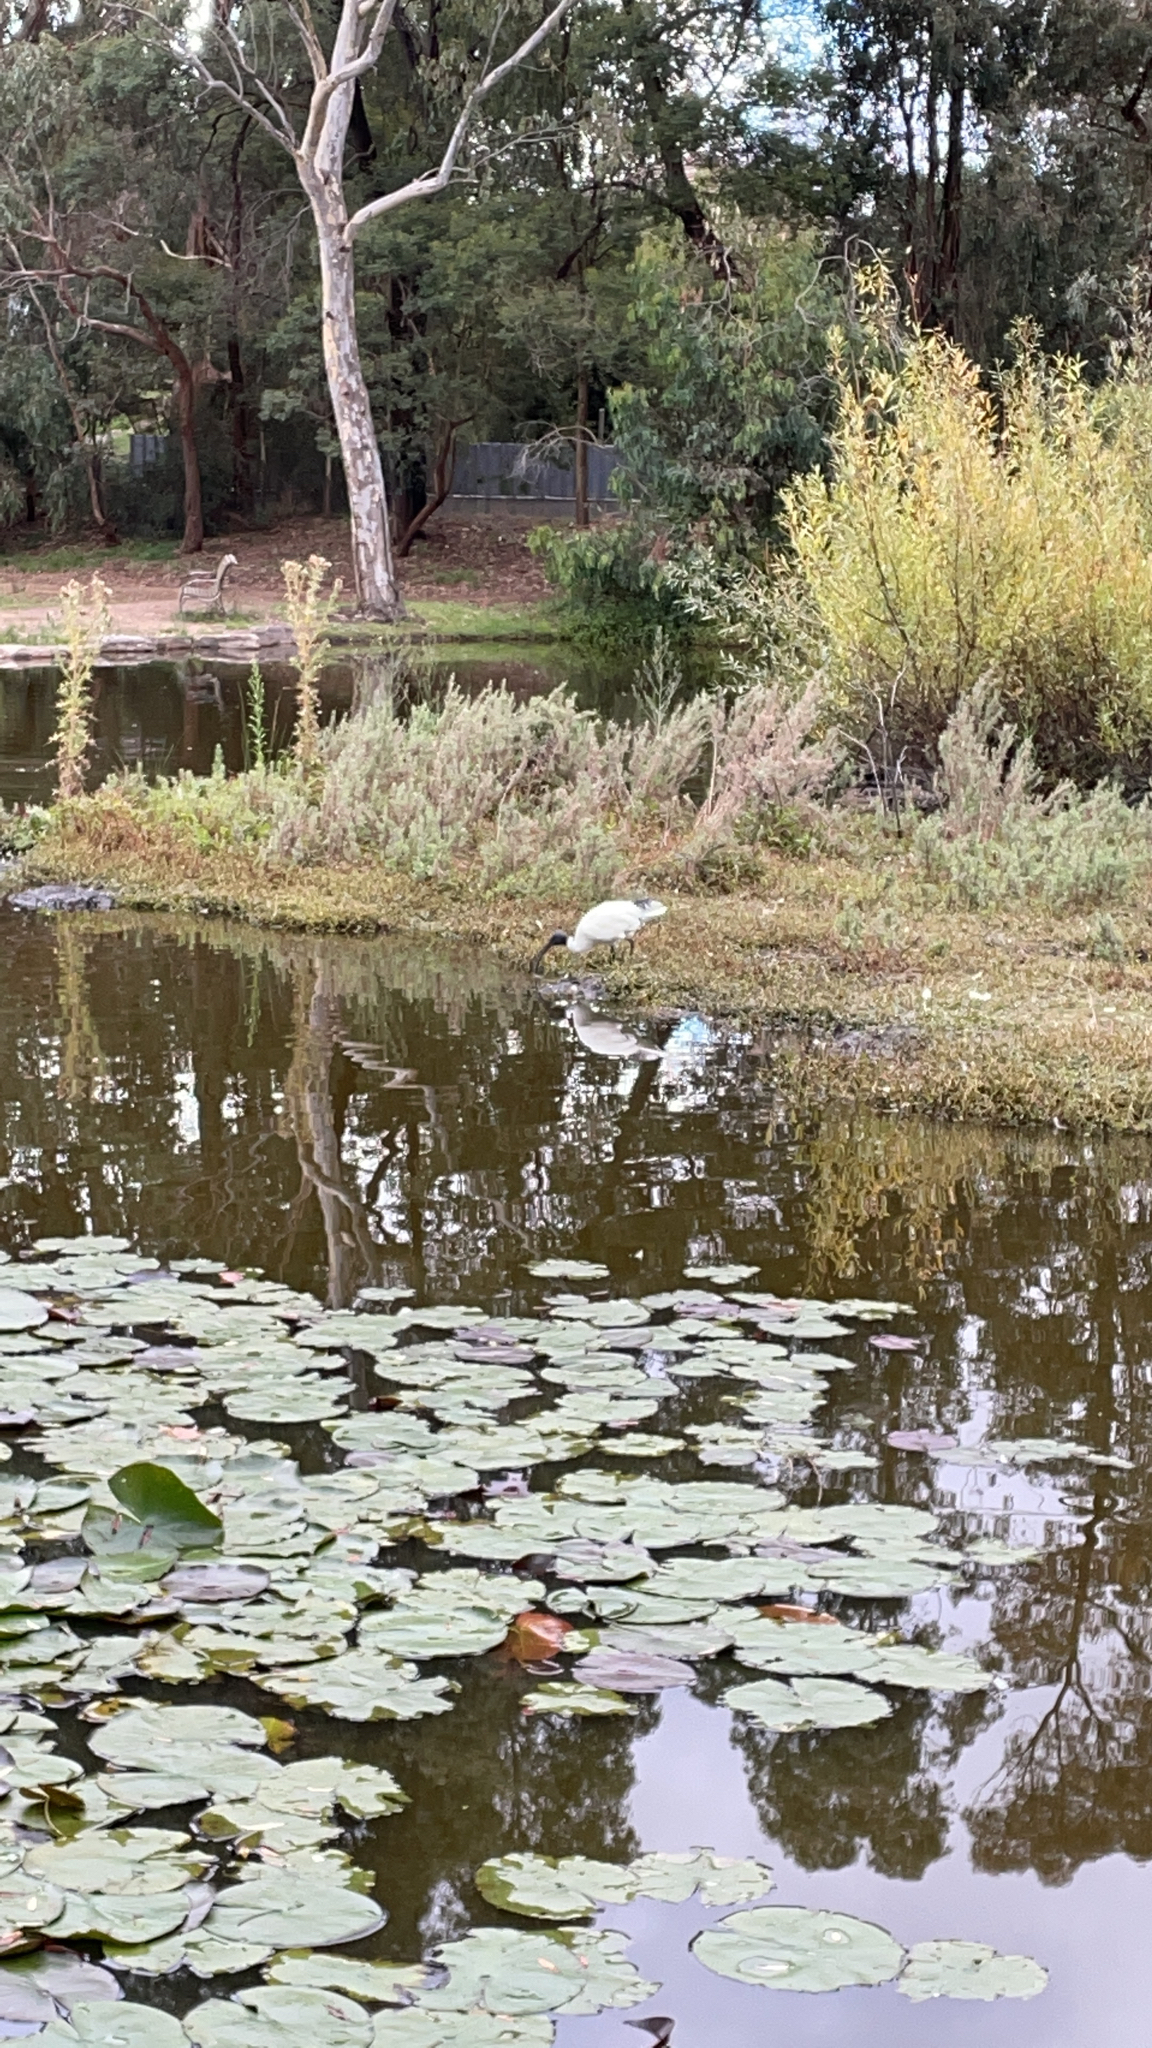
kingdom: Animalia
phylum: Chordata
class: Aves
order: Pelecaniformes
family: Threskiornithidae
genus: Threskiornis
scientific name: Threskiornis molucca
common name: Australian white ibis
